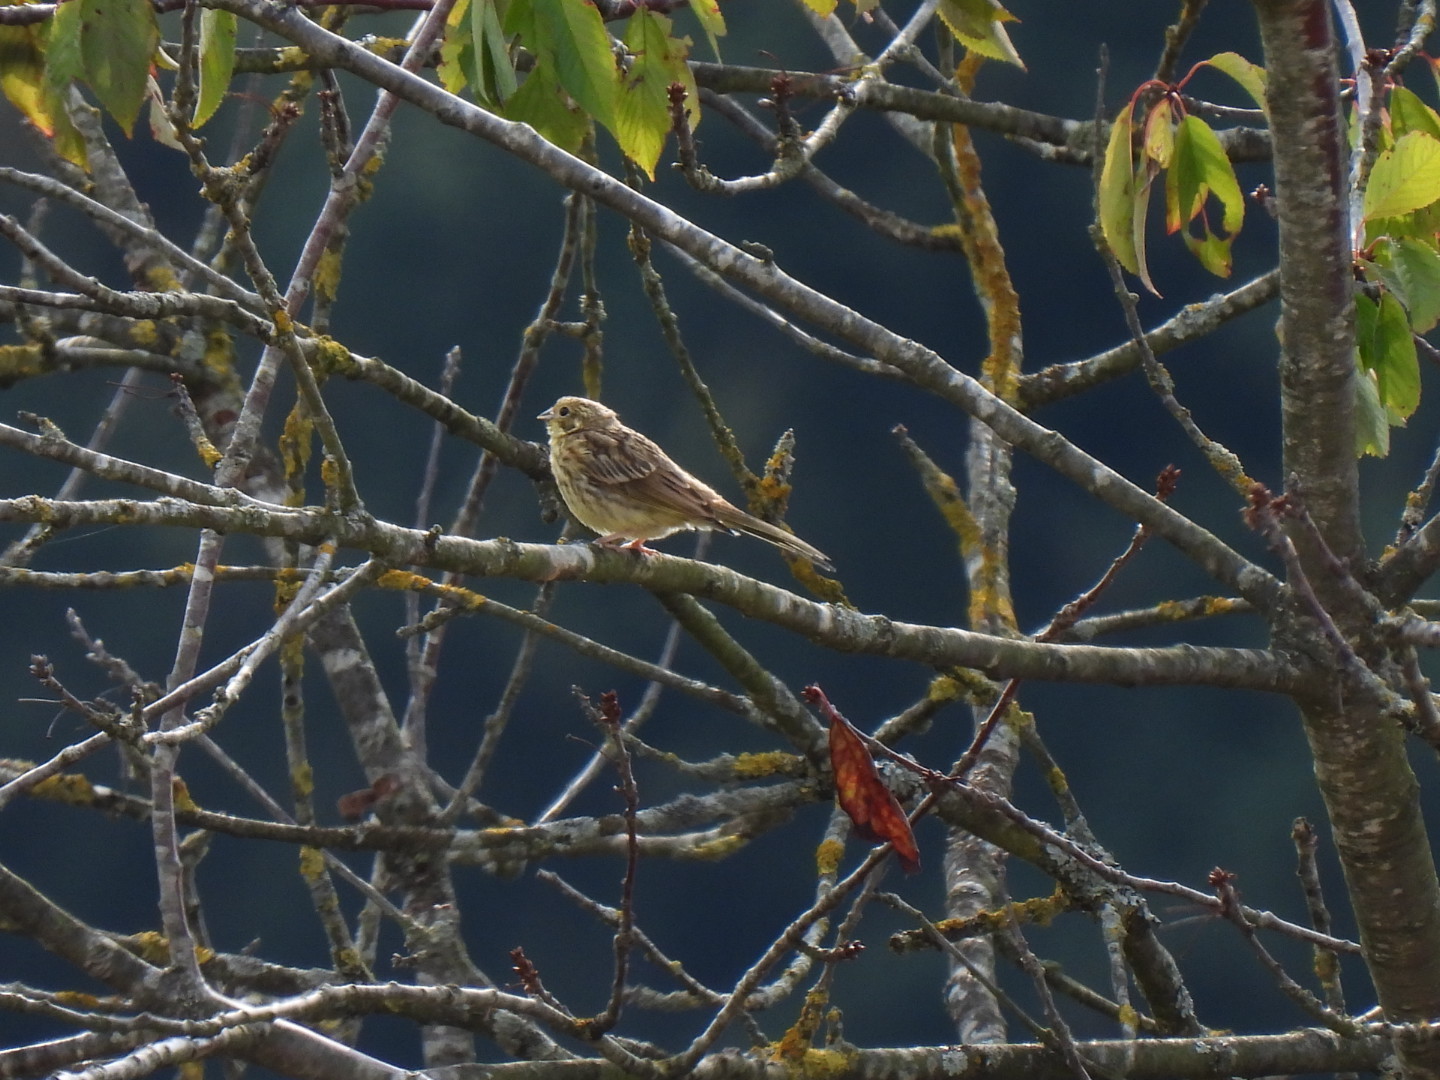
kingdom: Animalia
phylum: Chordata
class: Aves
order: Passeriformes
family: Emberizidae
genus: Emberiza
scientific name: Emberiza citrinella
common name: Yellowhammer
